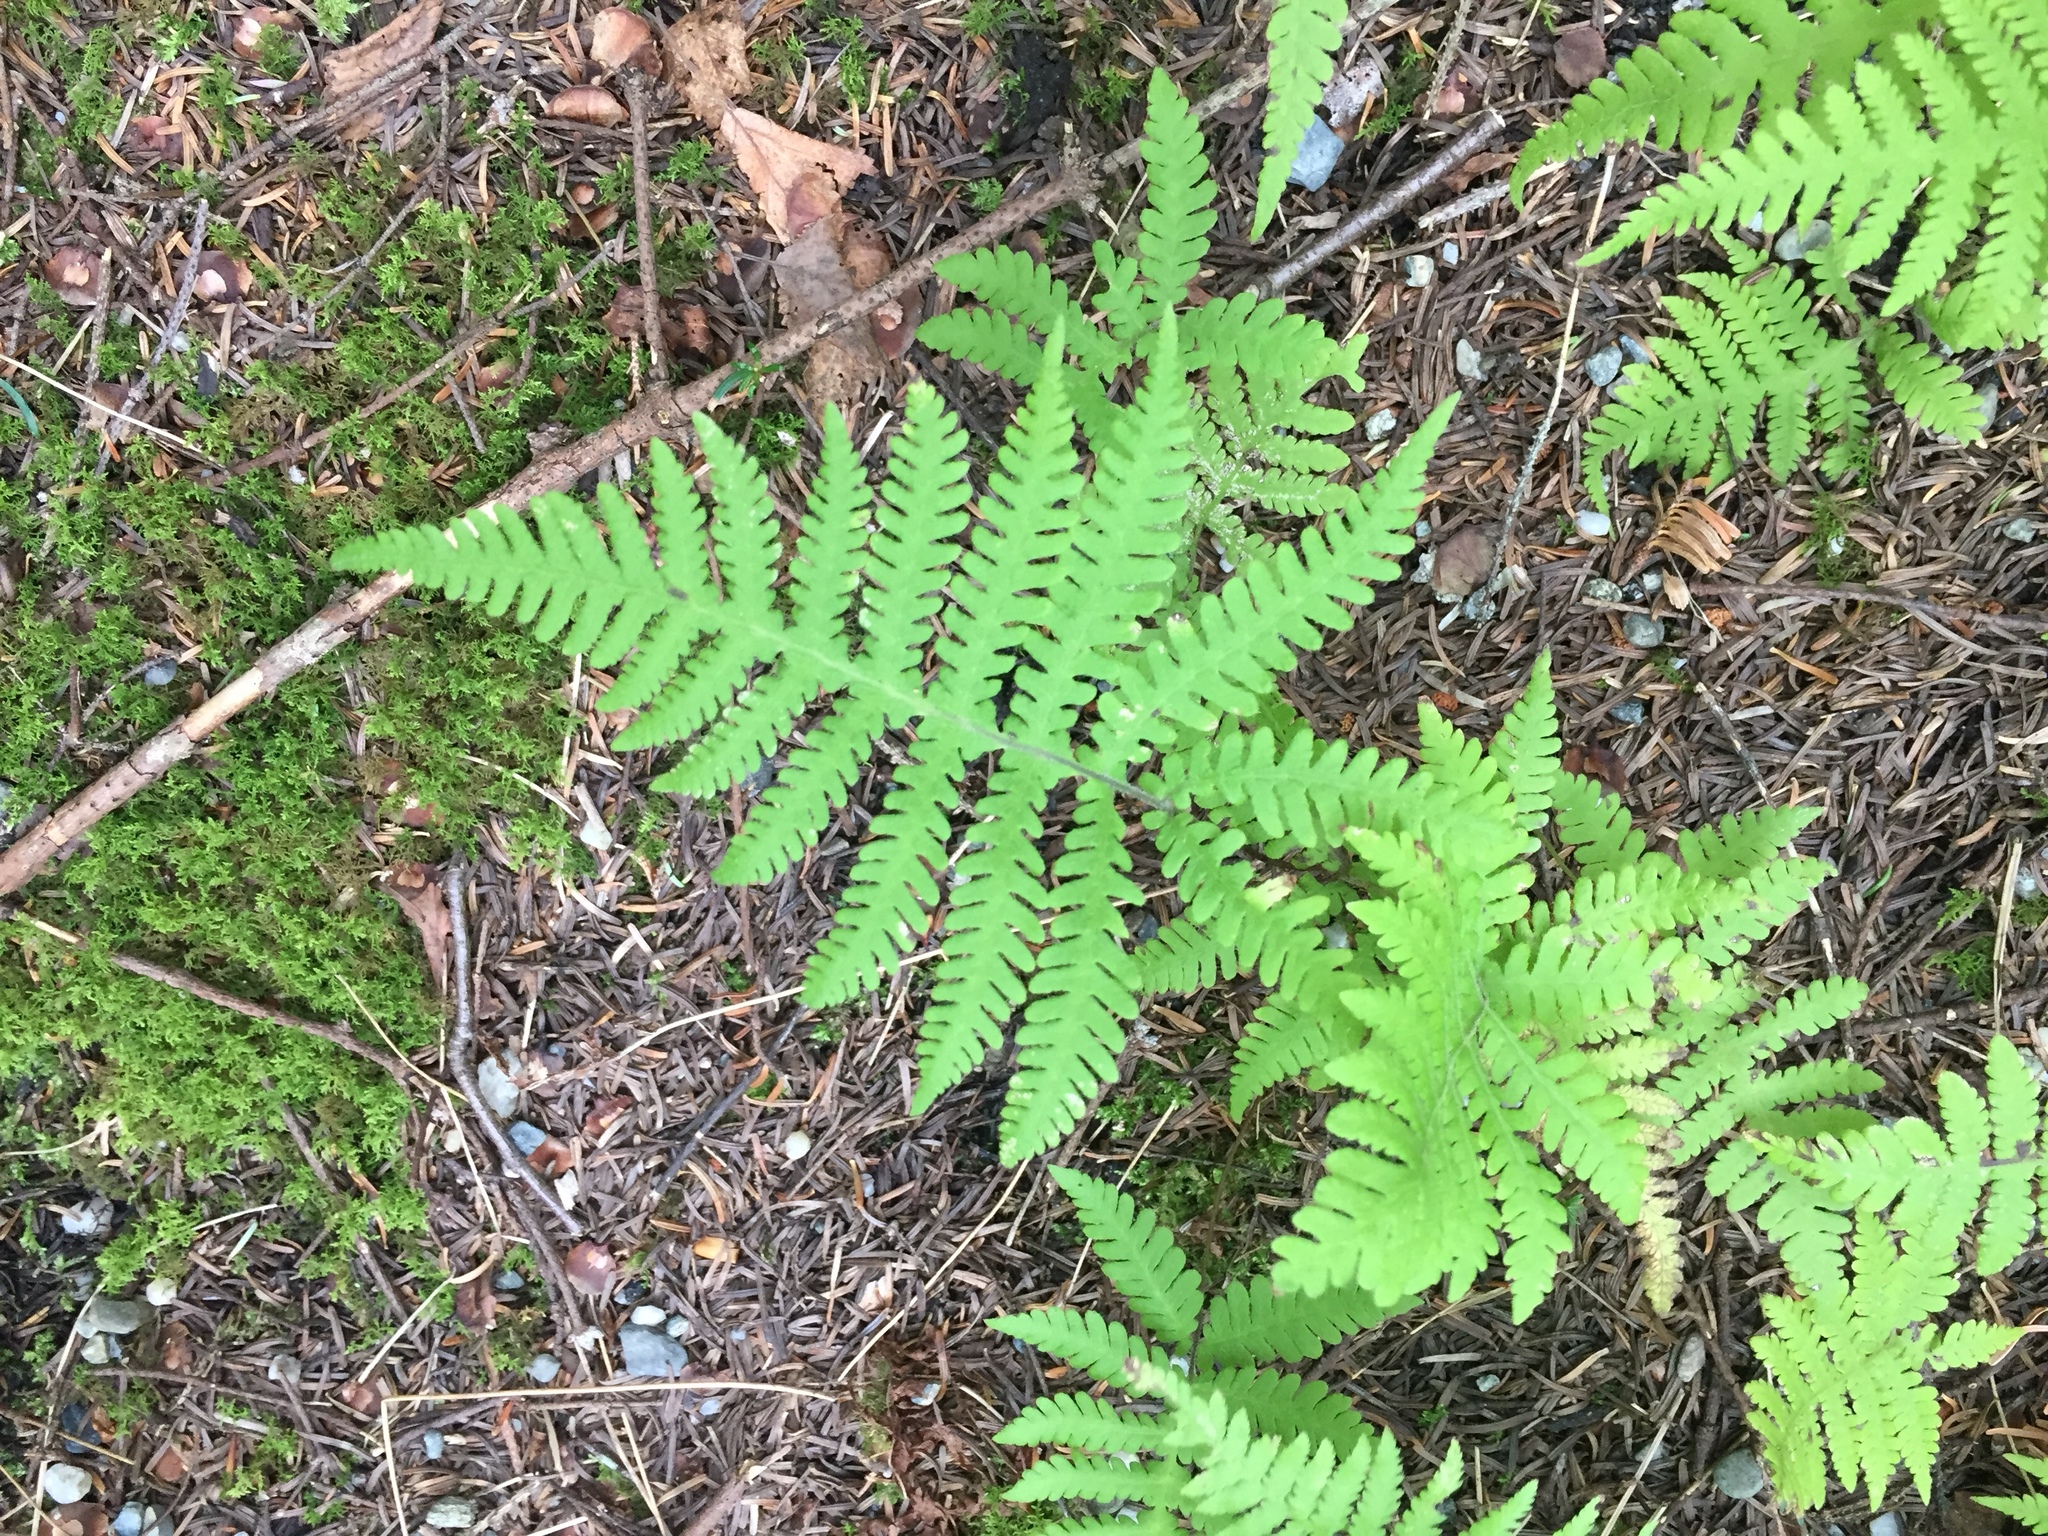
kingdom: Plantae
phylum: Tracheophyta
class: Polypodiopsida
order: Polypodiales
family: Thelypteridaceae
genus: Phegopteris
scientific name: Phegopteris connectilis
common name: Beech fern
